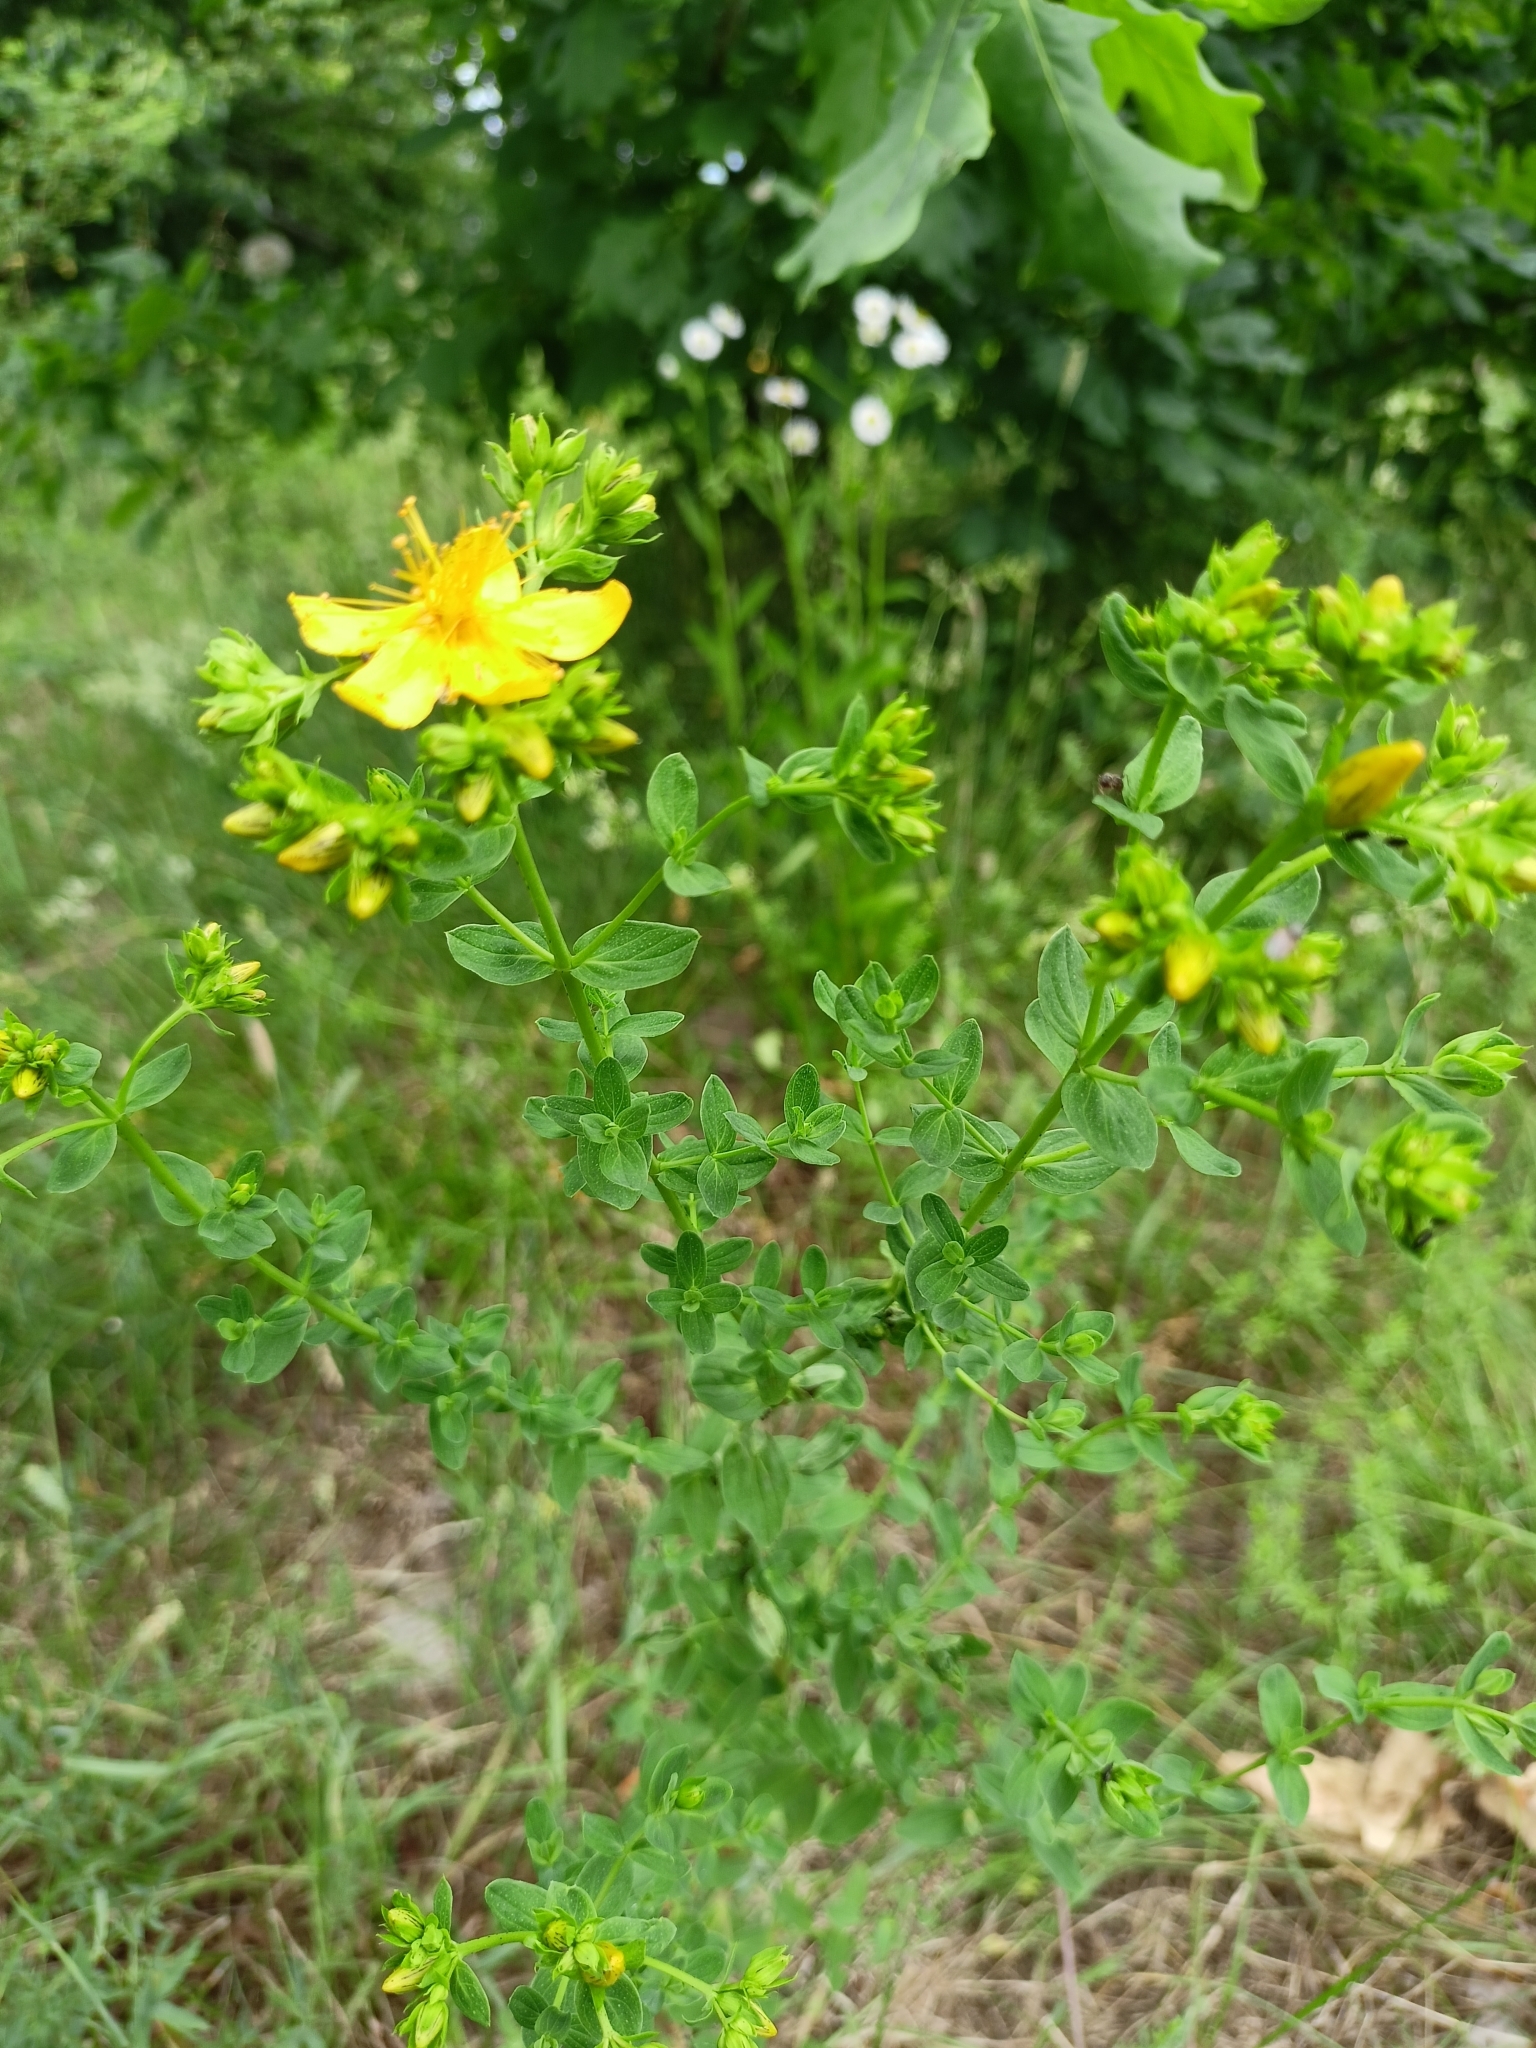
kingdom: Plantae
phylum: Tracheophyta
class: Magnoliopsida
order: Malpighiales
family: Hypericaceae
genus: Hypericum
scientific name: Hypericum perforatum
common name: Common st. johnswort
